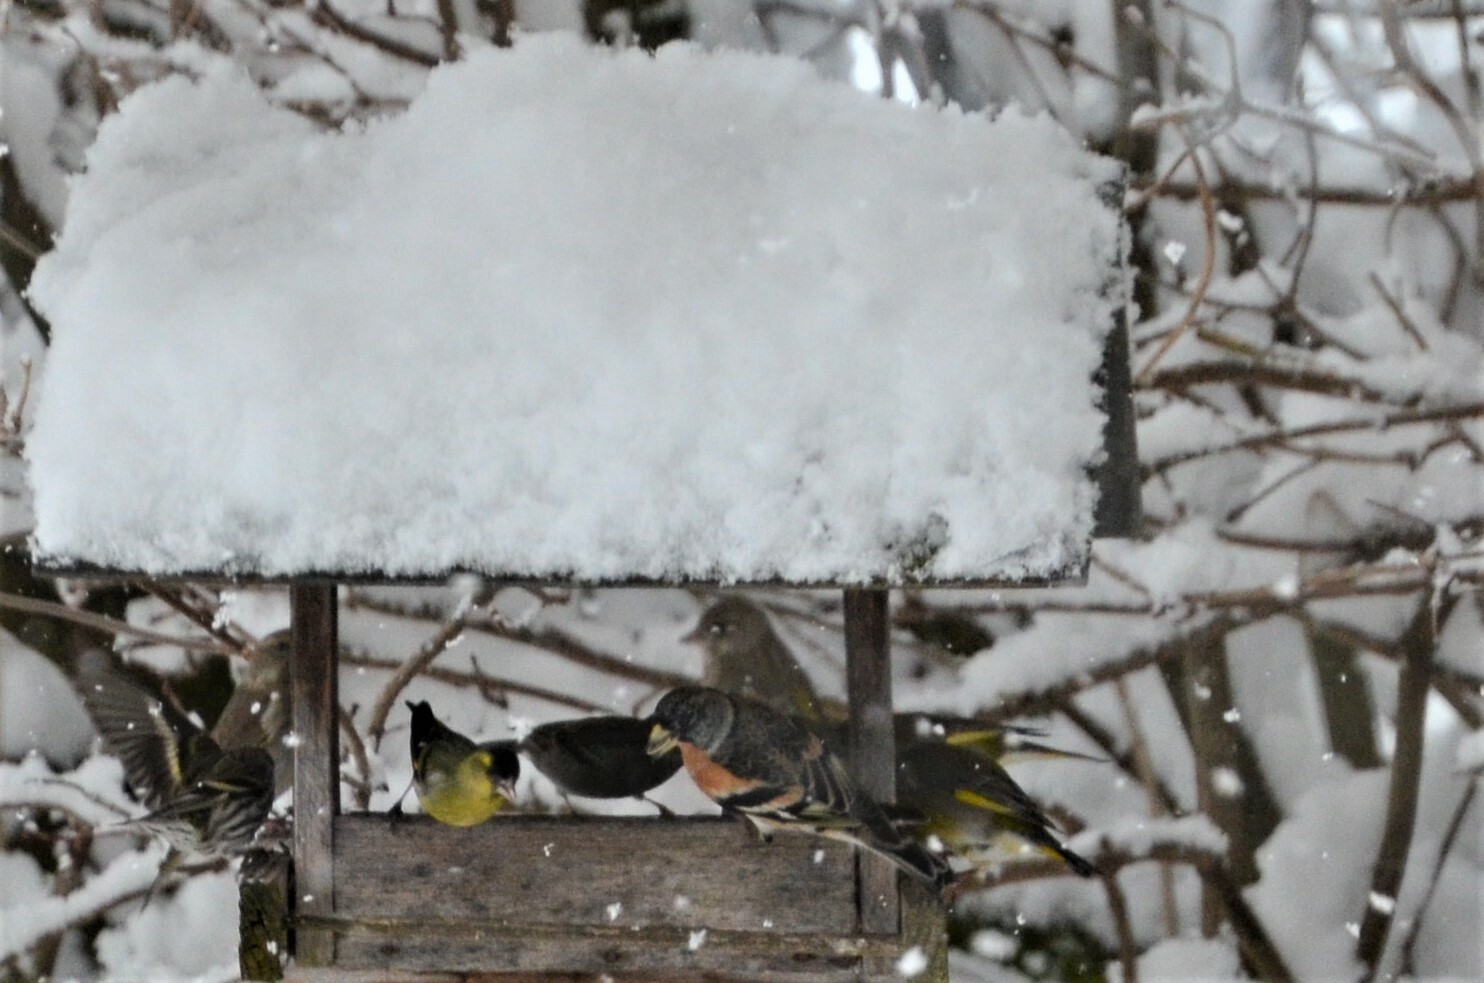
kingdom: Animalia
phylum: Chordata
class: Aves
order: Passeriformes
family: Fringillidae
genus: Fringilla
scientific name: Fringilla montifringilla
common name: Brambling
